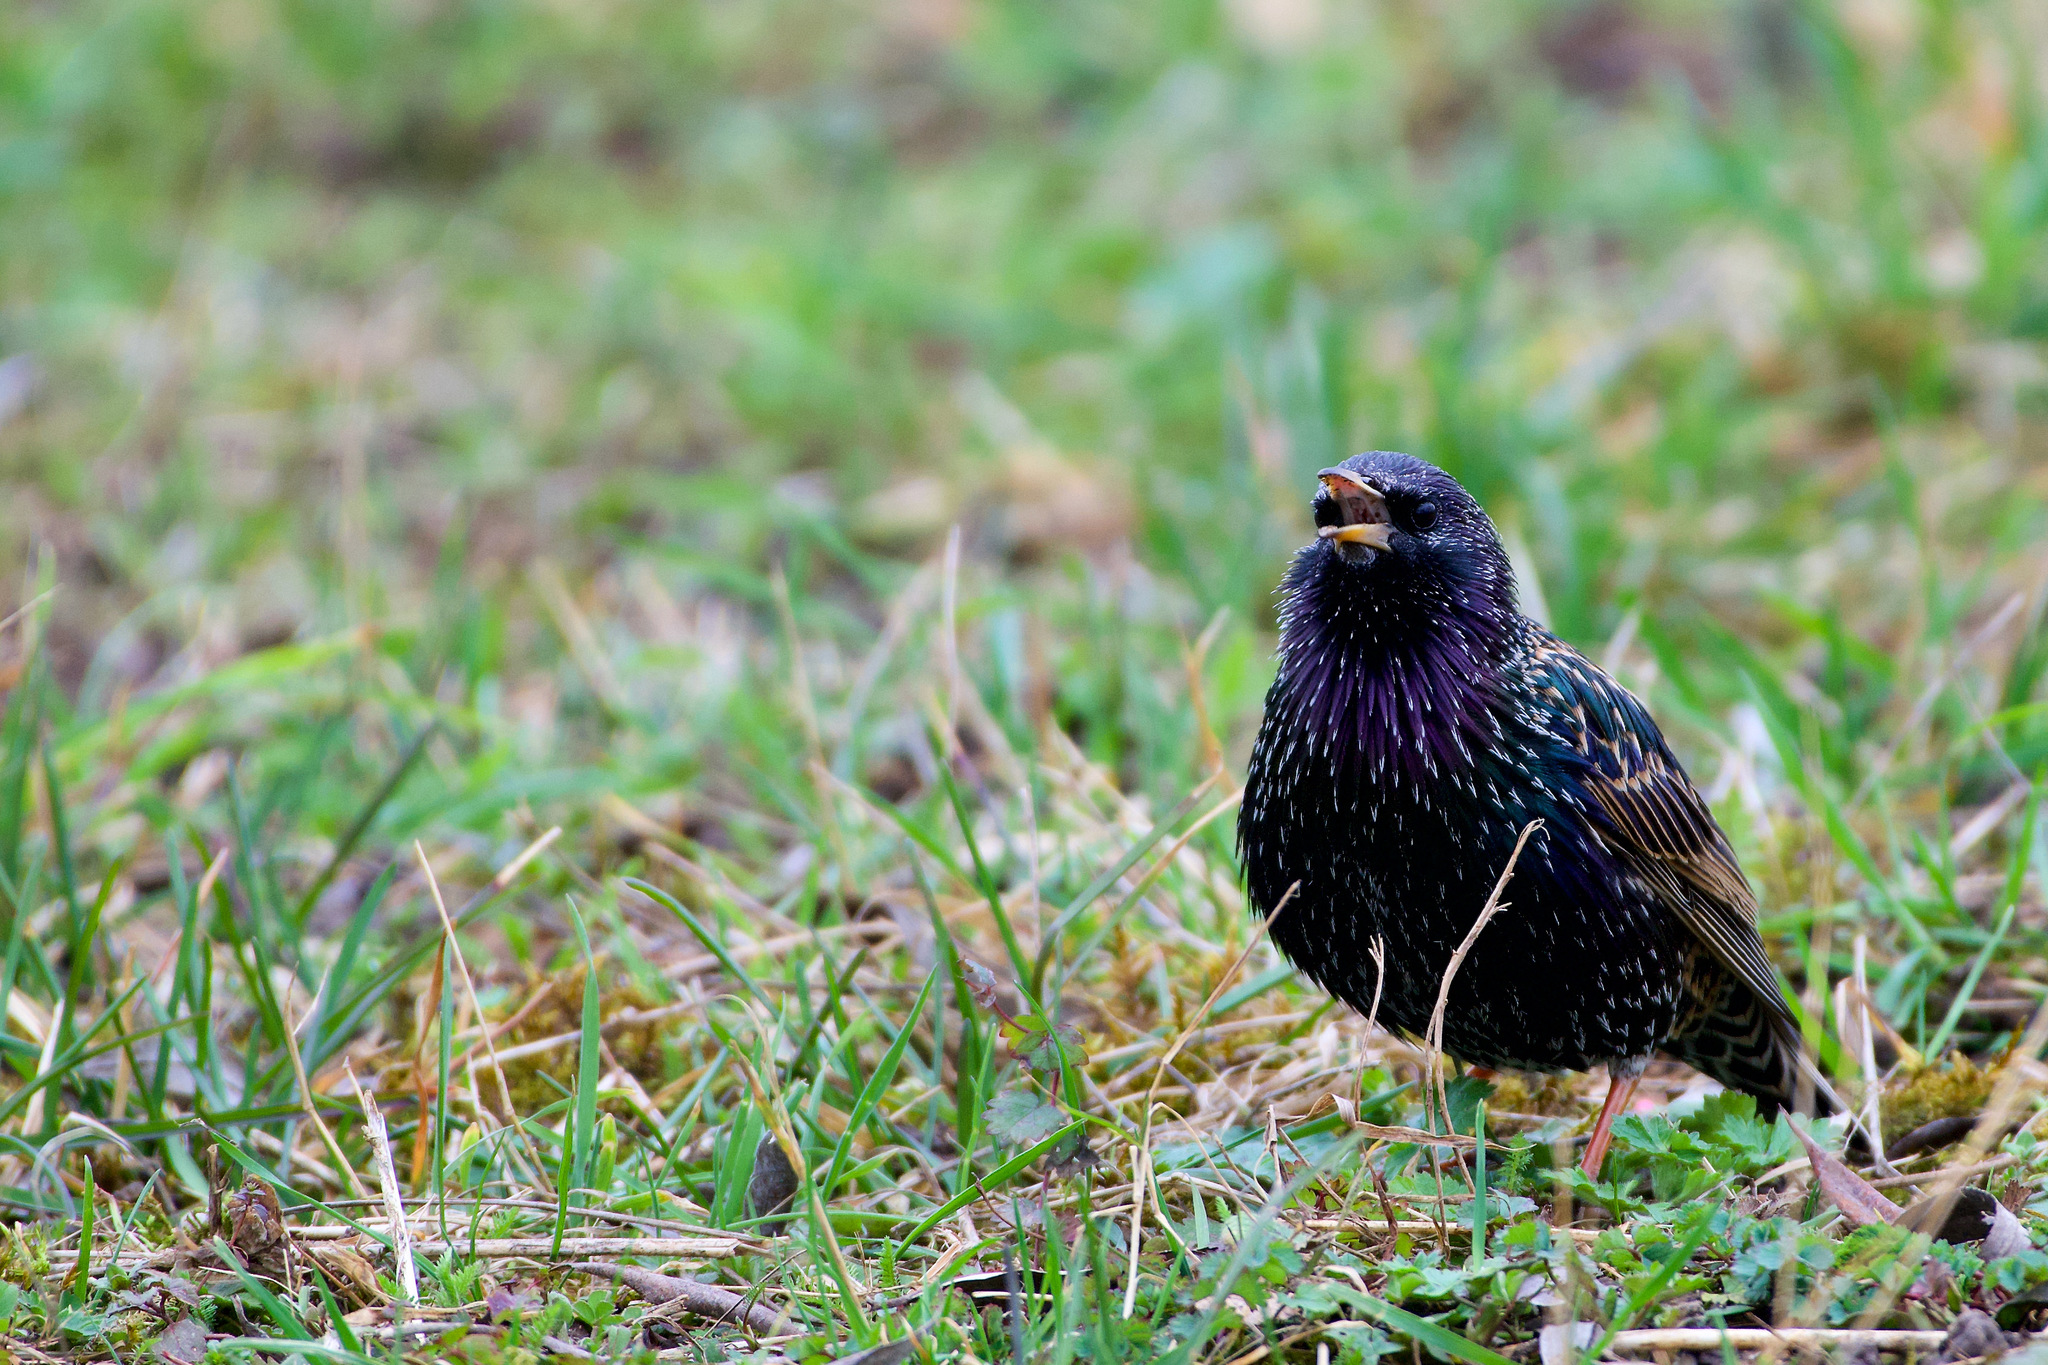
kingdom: Animalia
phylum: Chordata
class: Aves
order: Passeriformes
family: Sturnidae
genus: Sturnus
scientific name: Sturnus vulgaris
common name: Common starling
